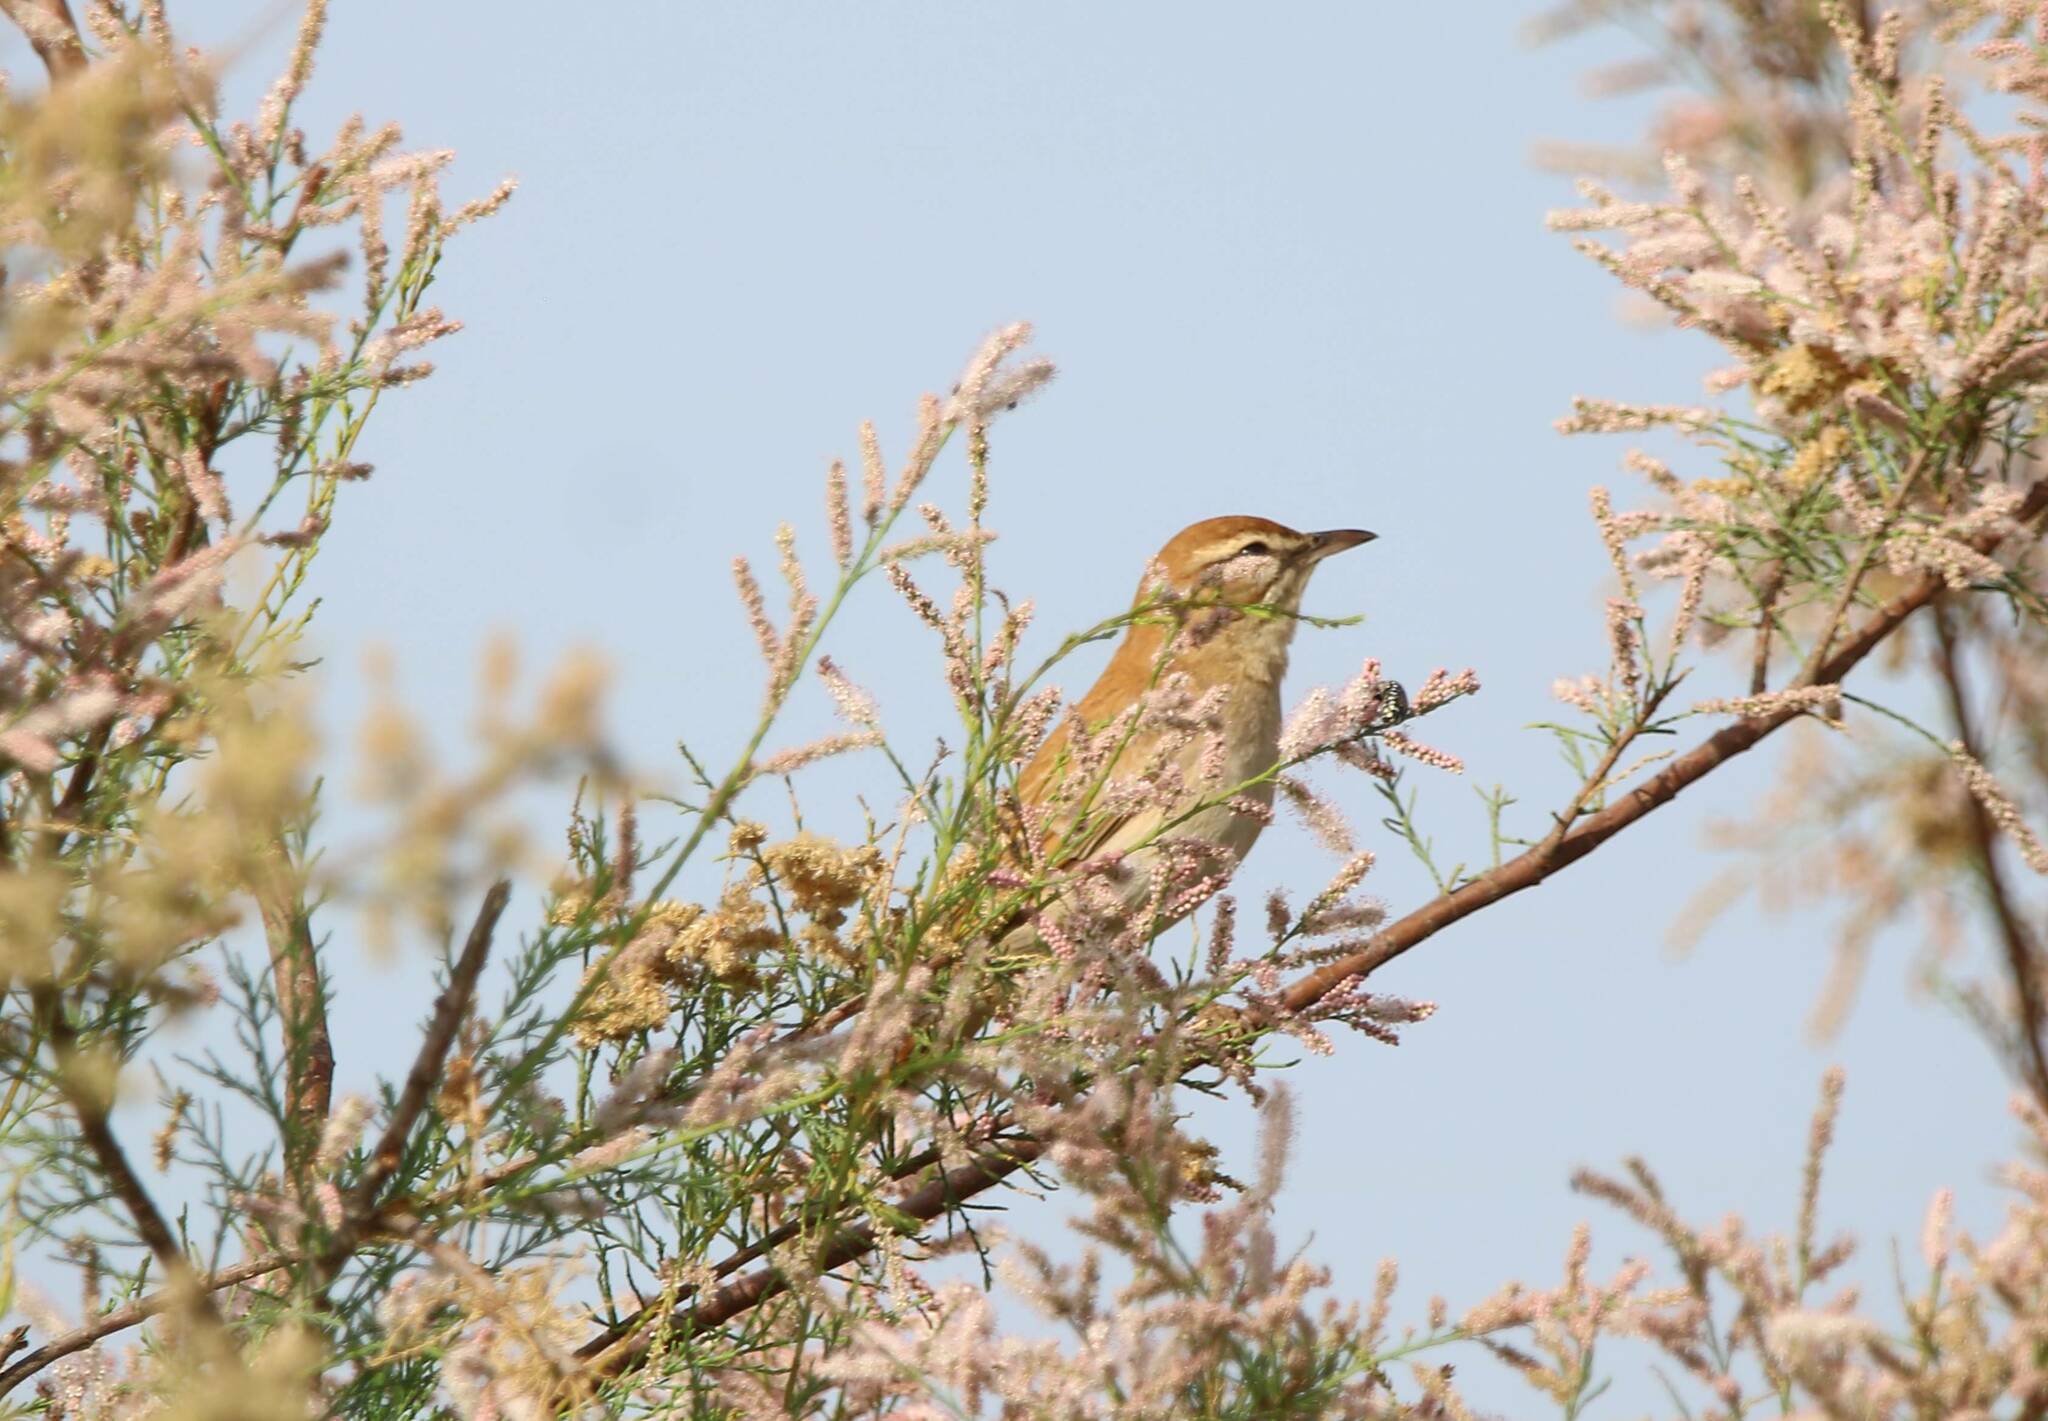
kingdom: Animalia
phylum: Chordata
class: Aves
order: Passeriformes
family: Muscicapidae
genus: Erythropygia
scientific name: Erythropygia galactotes
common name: Rufous-tailed scrub robin
